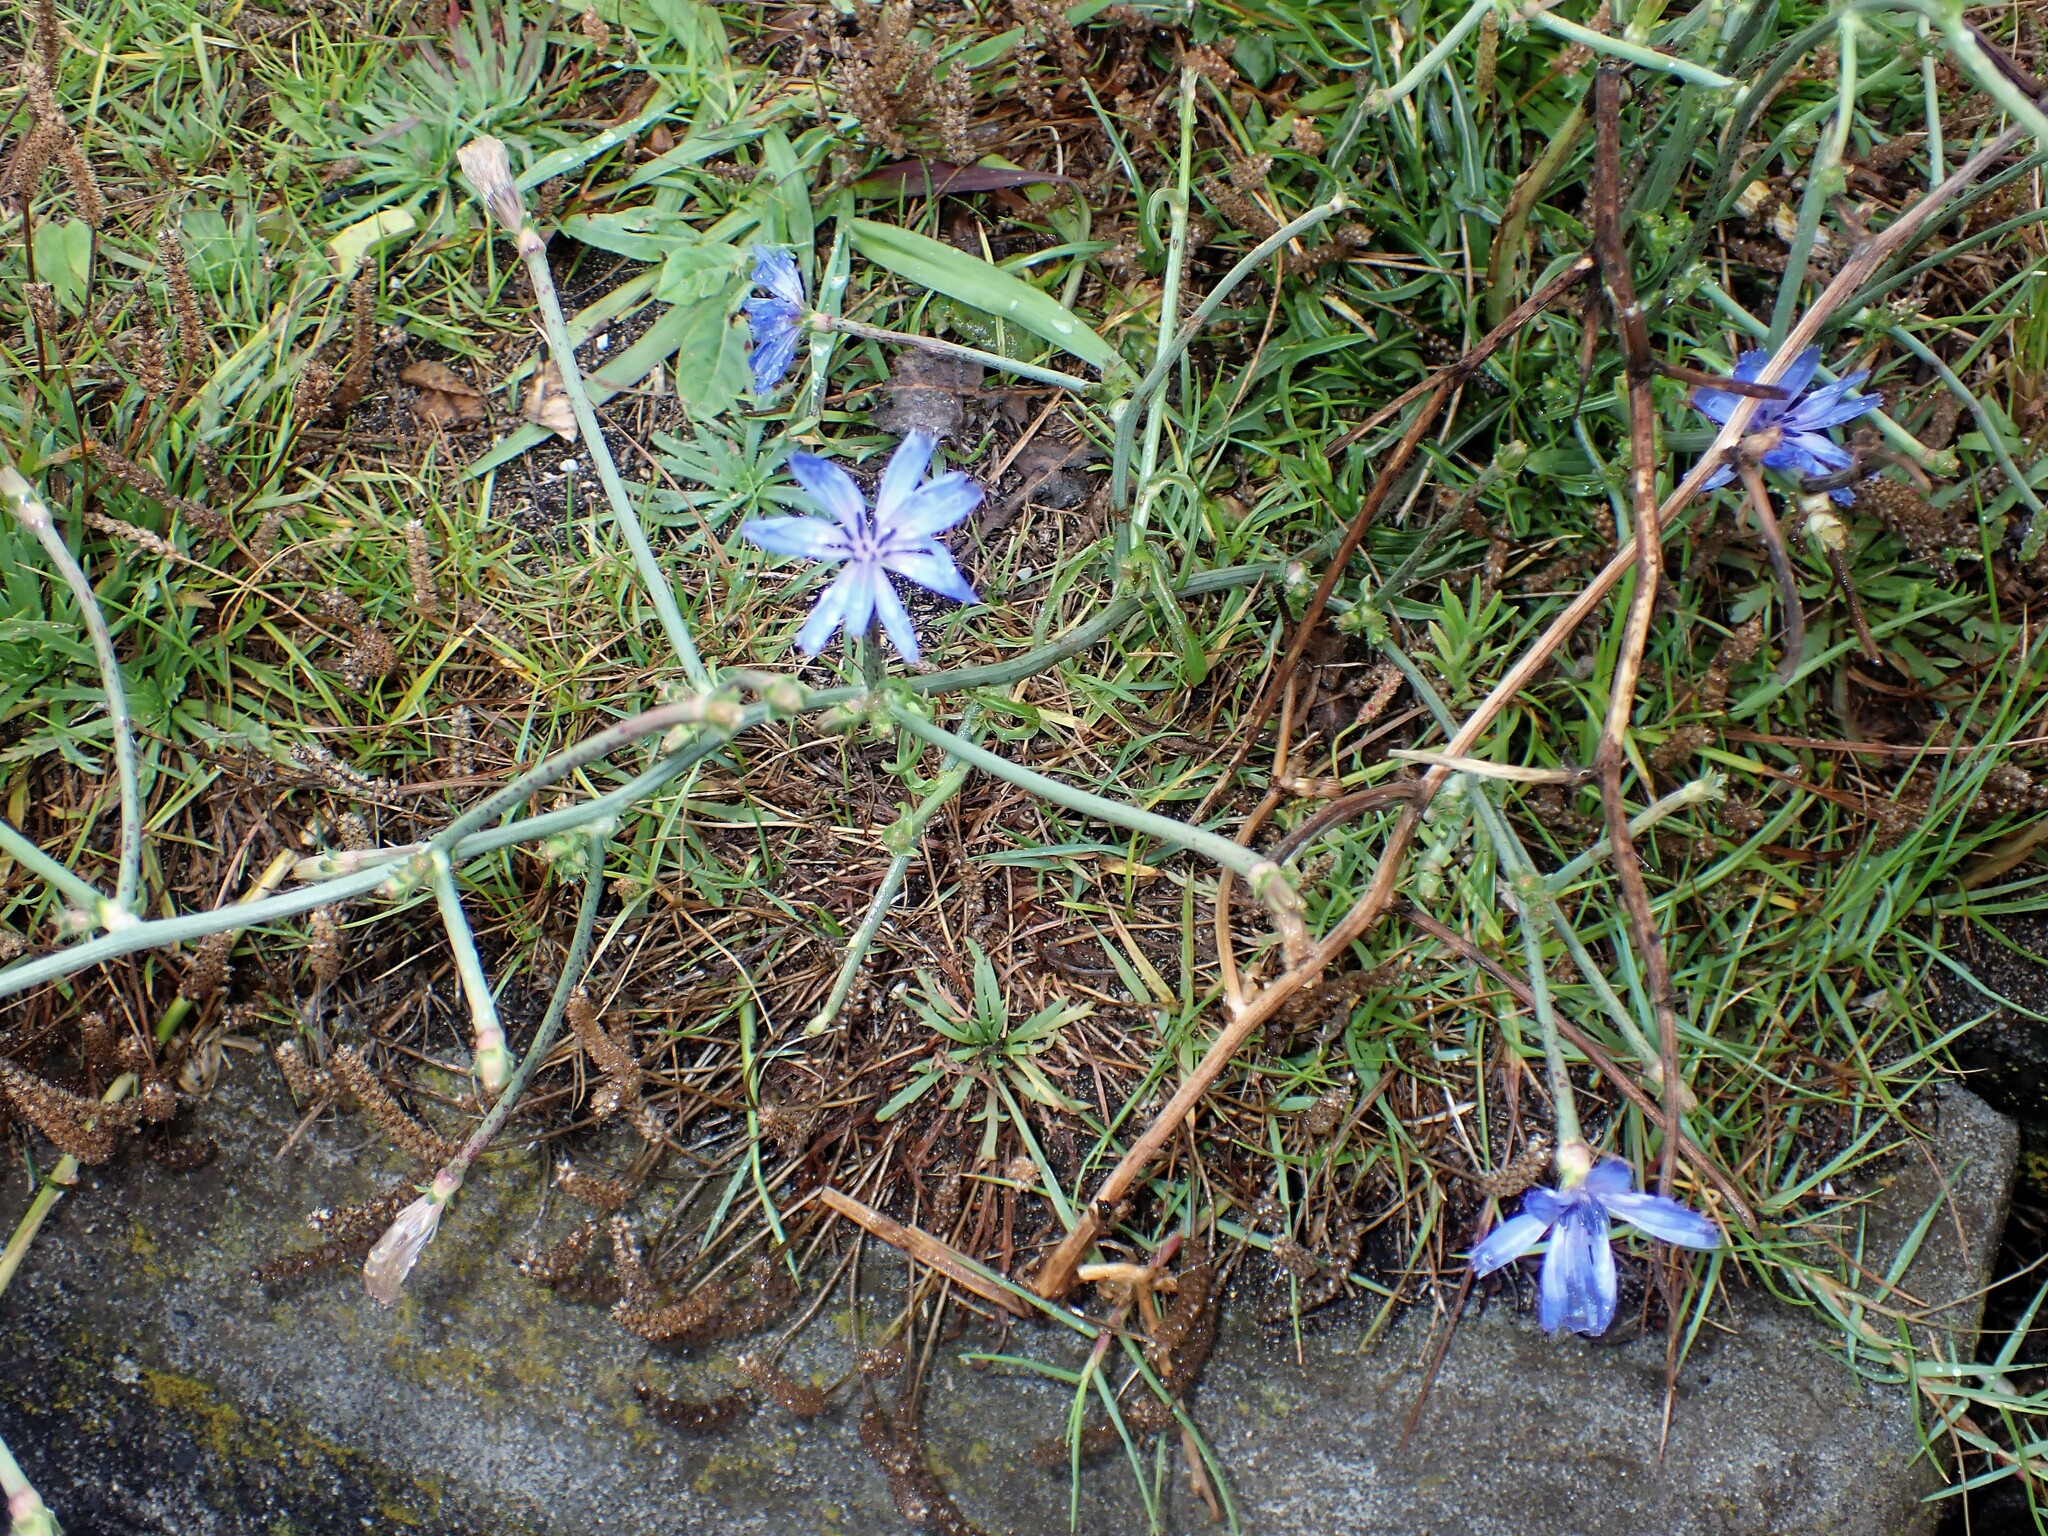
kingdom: Plantae
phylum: Tracheophyta
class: Magnoliopsida
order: Asterales
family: Asteraceae
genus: Cichorium
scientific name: Cichorium intybus
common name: Chicory
